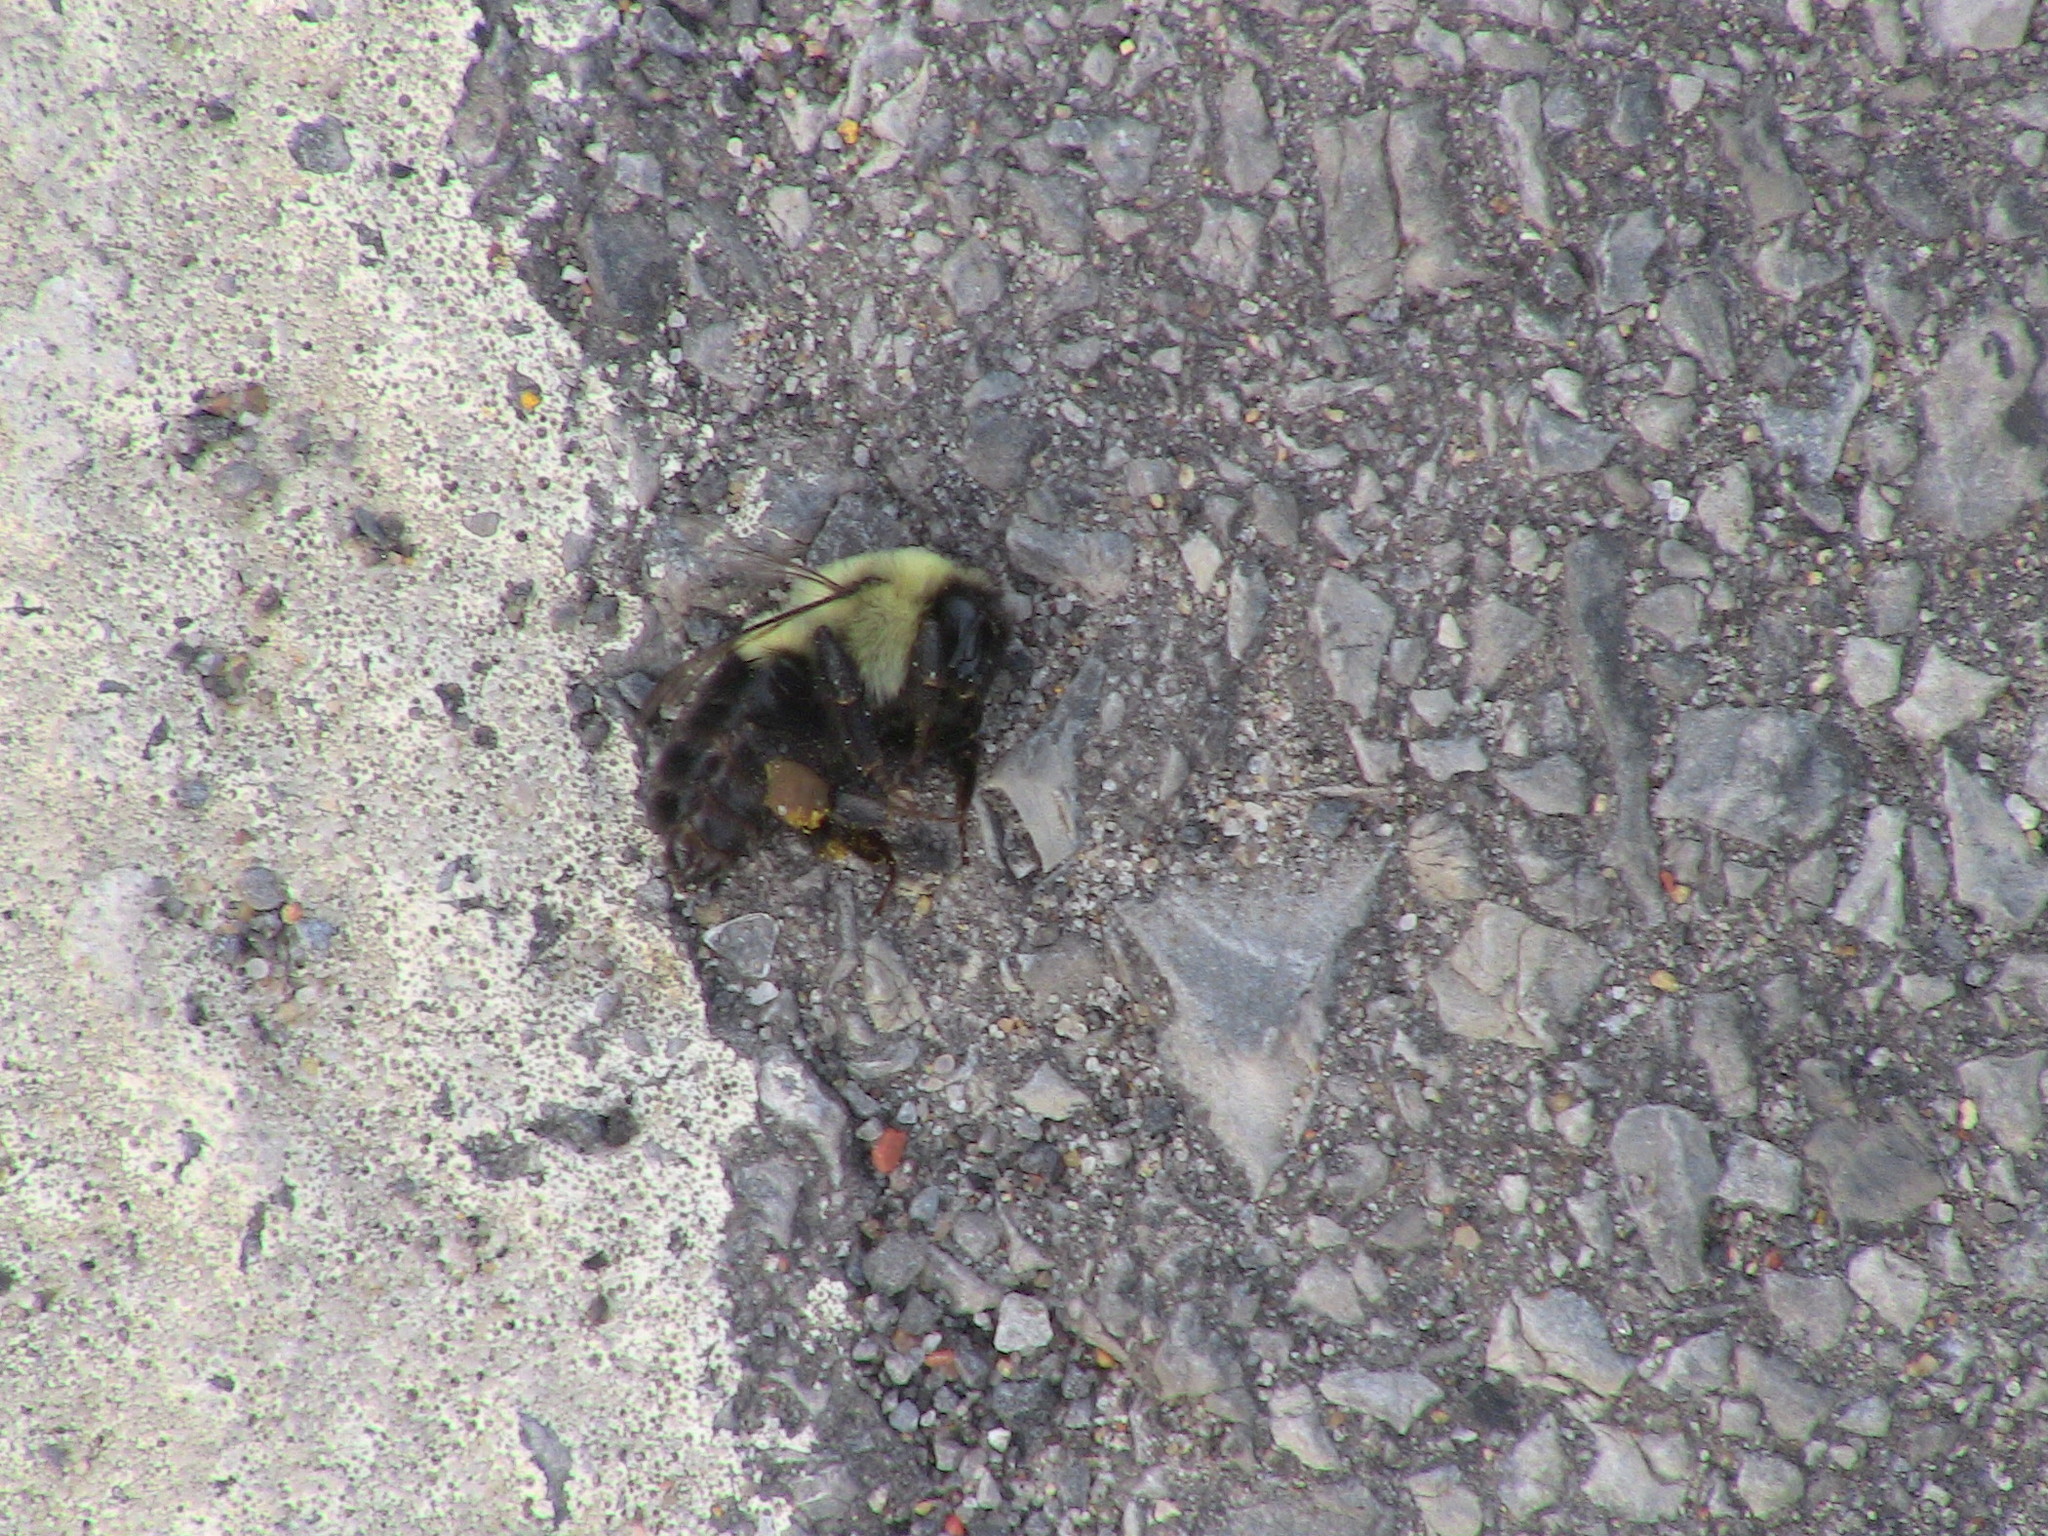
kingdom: Animalia
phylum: Arthropoda
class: Insecta
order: Hymenoptera
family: Apidae
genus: Bombus
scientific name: Bombus impatiens
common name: Common eastern bumble bee
